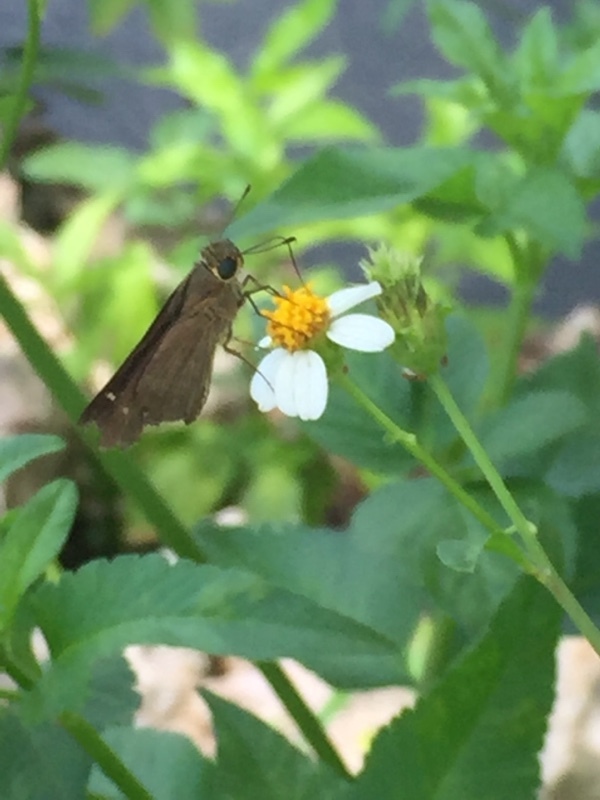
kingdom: Animalia
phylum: Arthropoda
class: Insecta
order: Lepidoptera
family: Hesperiidae
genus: Panoquina
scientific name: Panoquina ocola
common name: Ocola skipper
